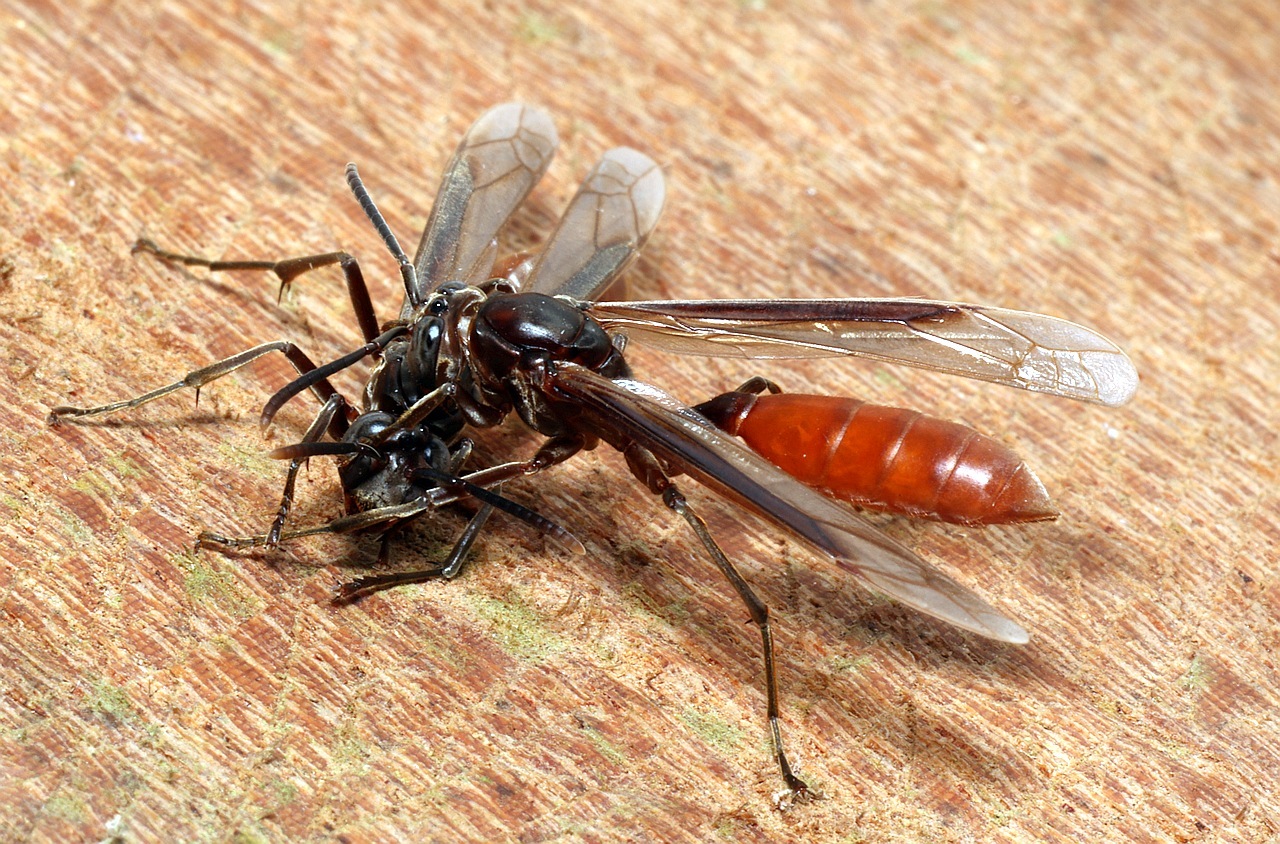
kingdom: Animalia
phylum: Arthropoda
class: Insecta
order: Hymenoptera
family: Vespidae
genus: Apoica
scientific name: Apoica thoracica
